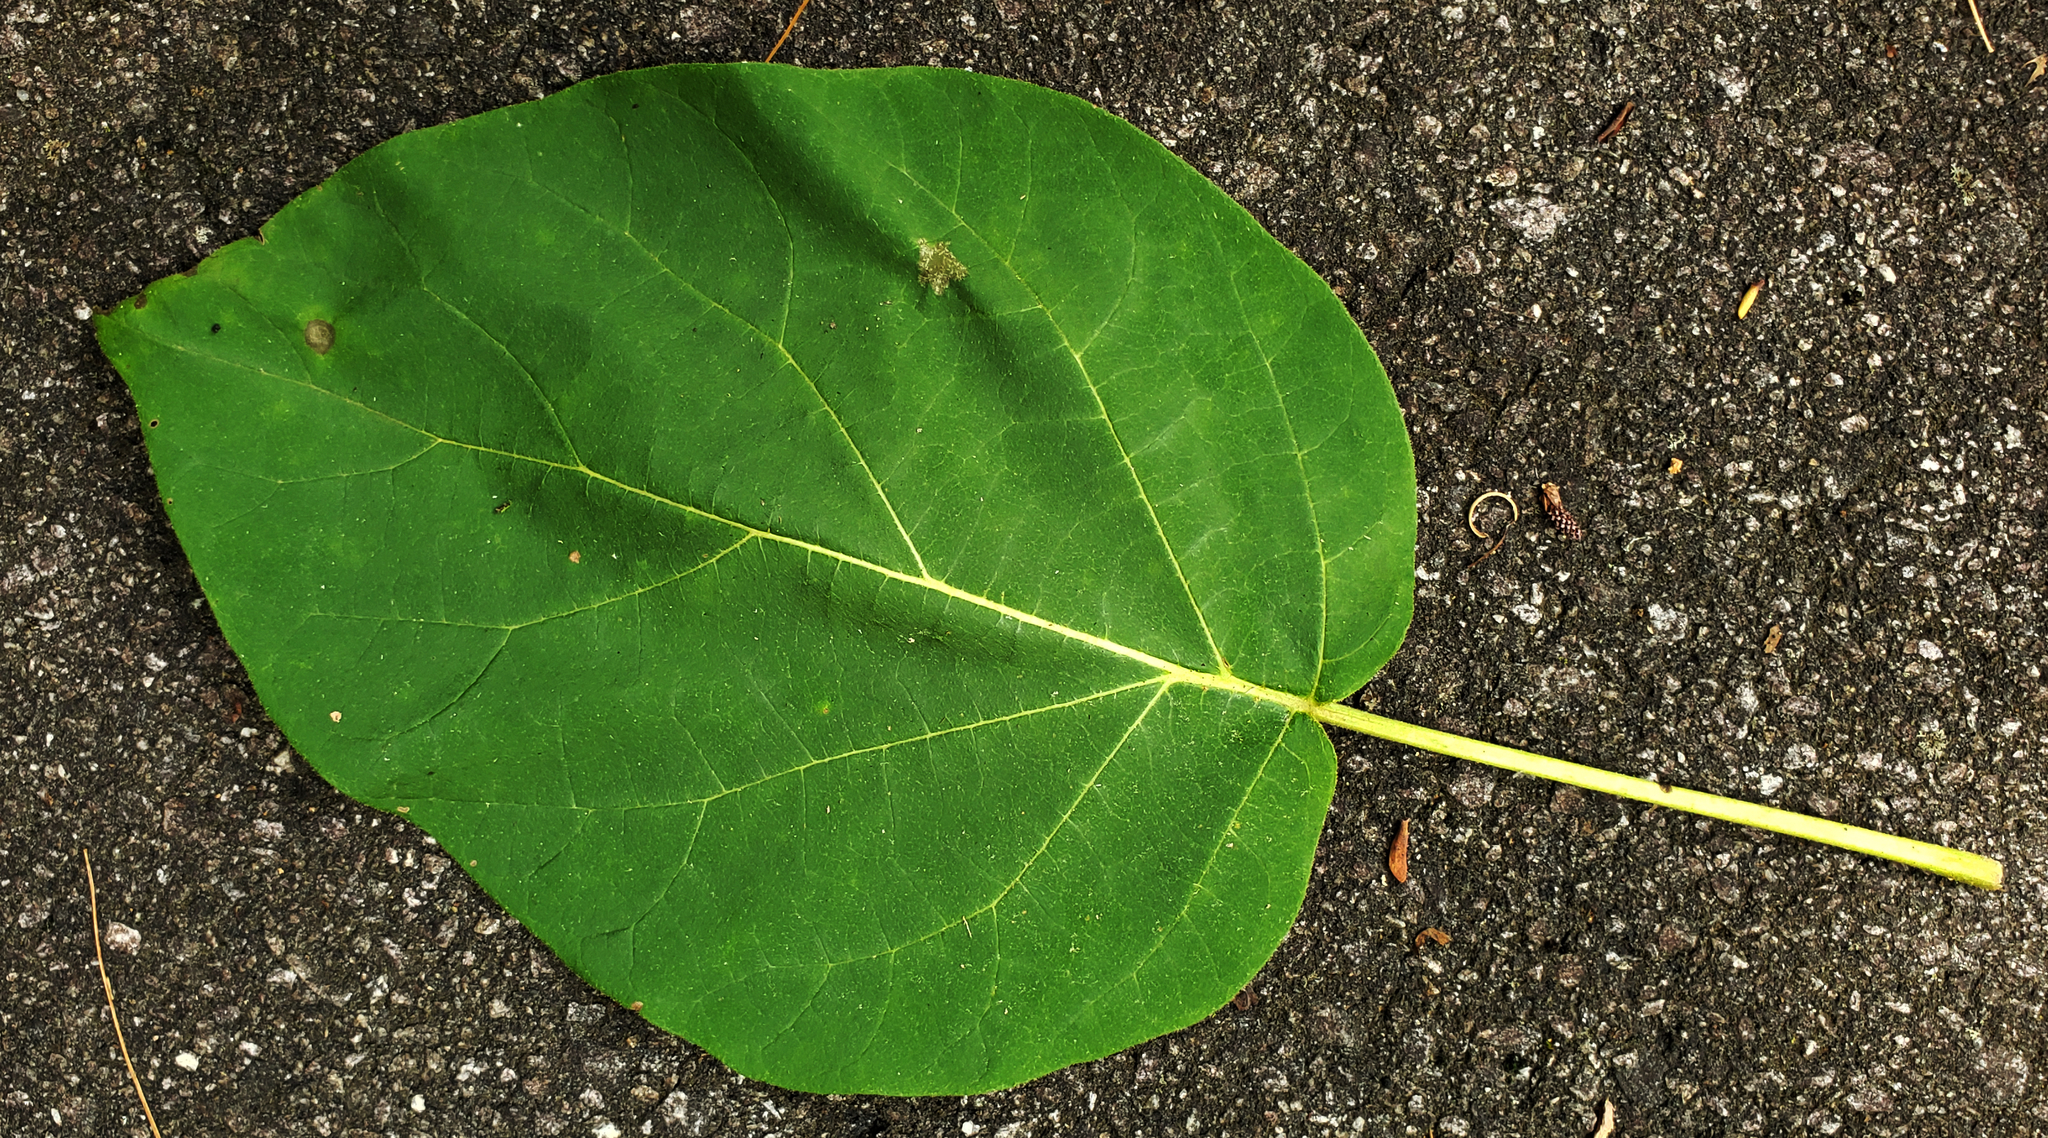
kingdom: Plantae
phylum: Tracheophyta
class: Magnoliopsida
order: Lamiales
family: Paulowniaceae
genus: Paulownia
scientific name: Paulownia tomentosa
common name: Foxglove-tree
